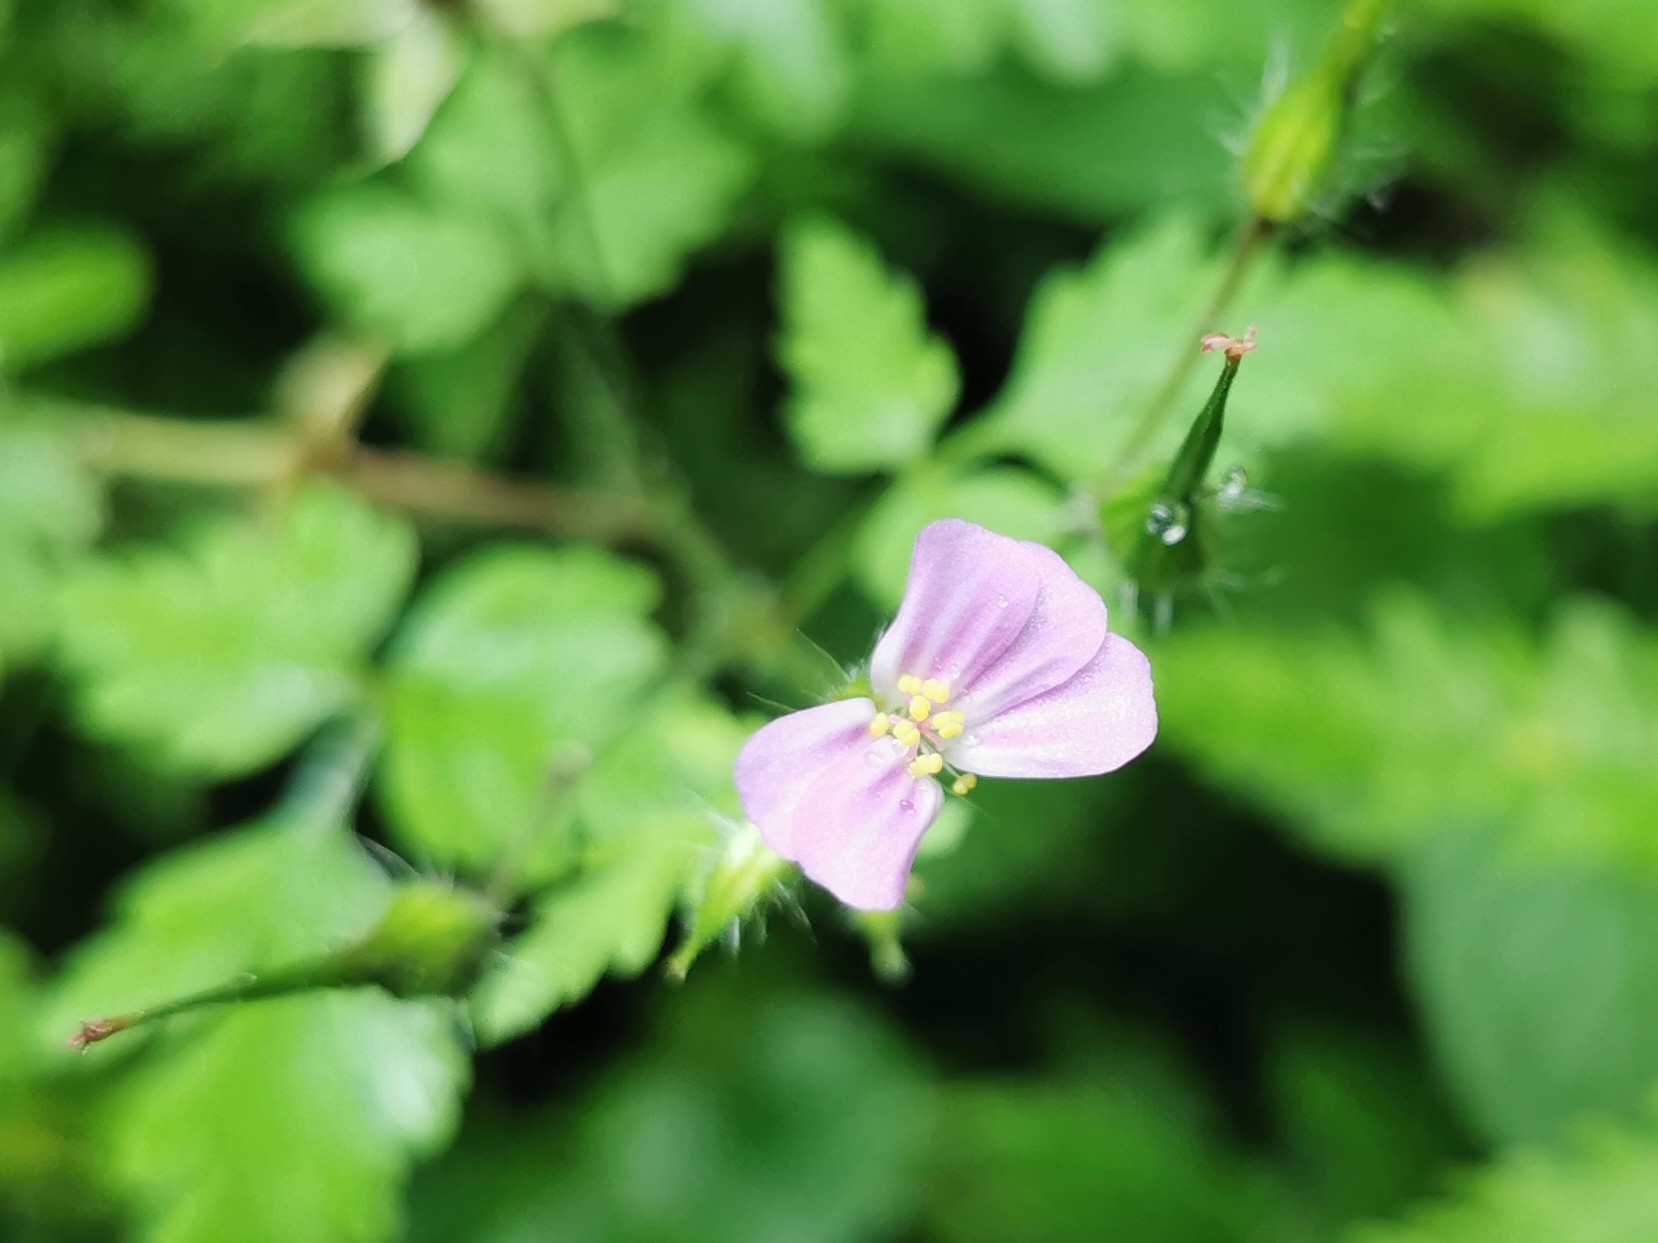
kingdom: Plantae
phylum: Tracheophyta
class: Magnoliopsida
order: Geraniales
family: Geraniaceae
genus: Geranium
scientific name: Geranium robertianum
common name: Herb-robert
